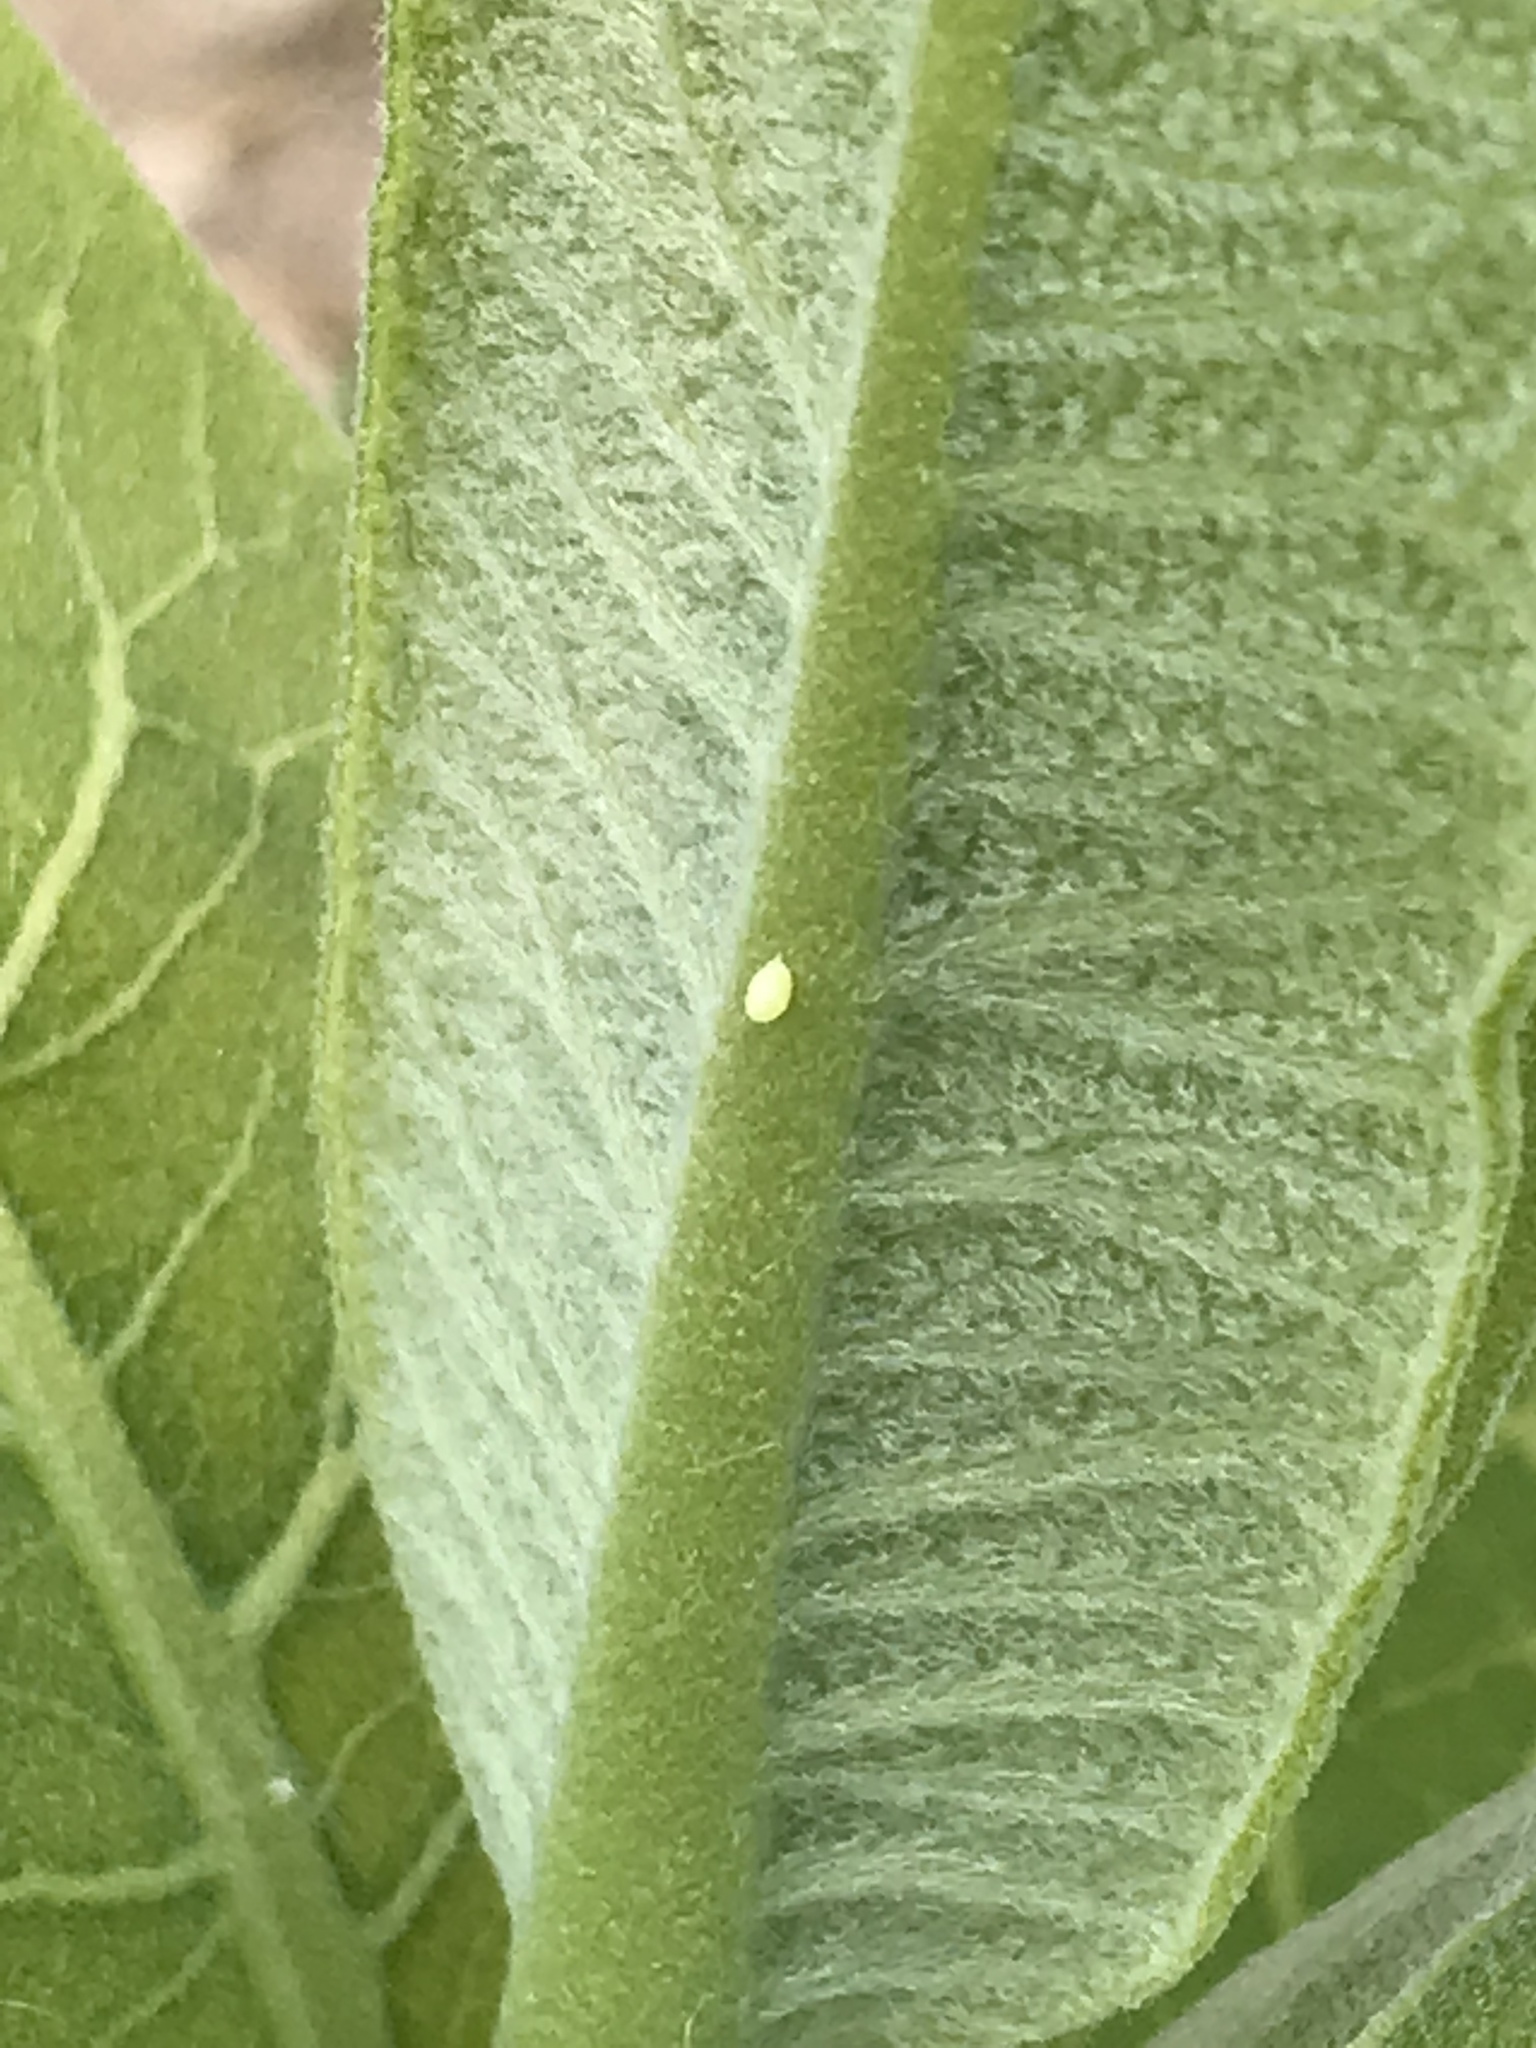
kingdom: Animalia
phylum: Arthropoda
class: Insecta
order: Lepidoptera
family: Nymphalidae
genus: Danaus
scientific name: Danaus plexippus
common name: Monarch
